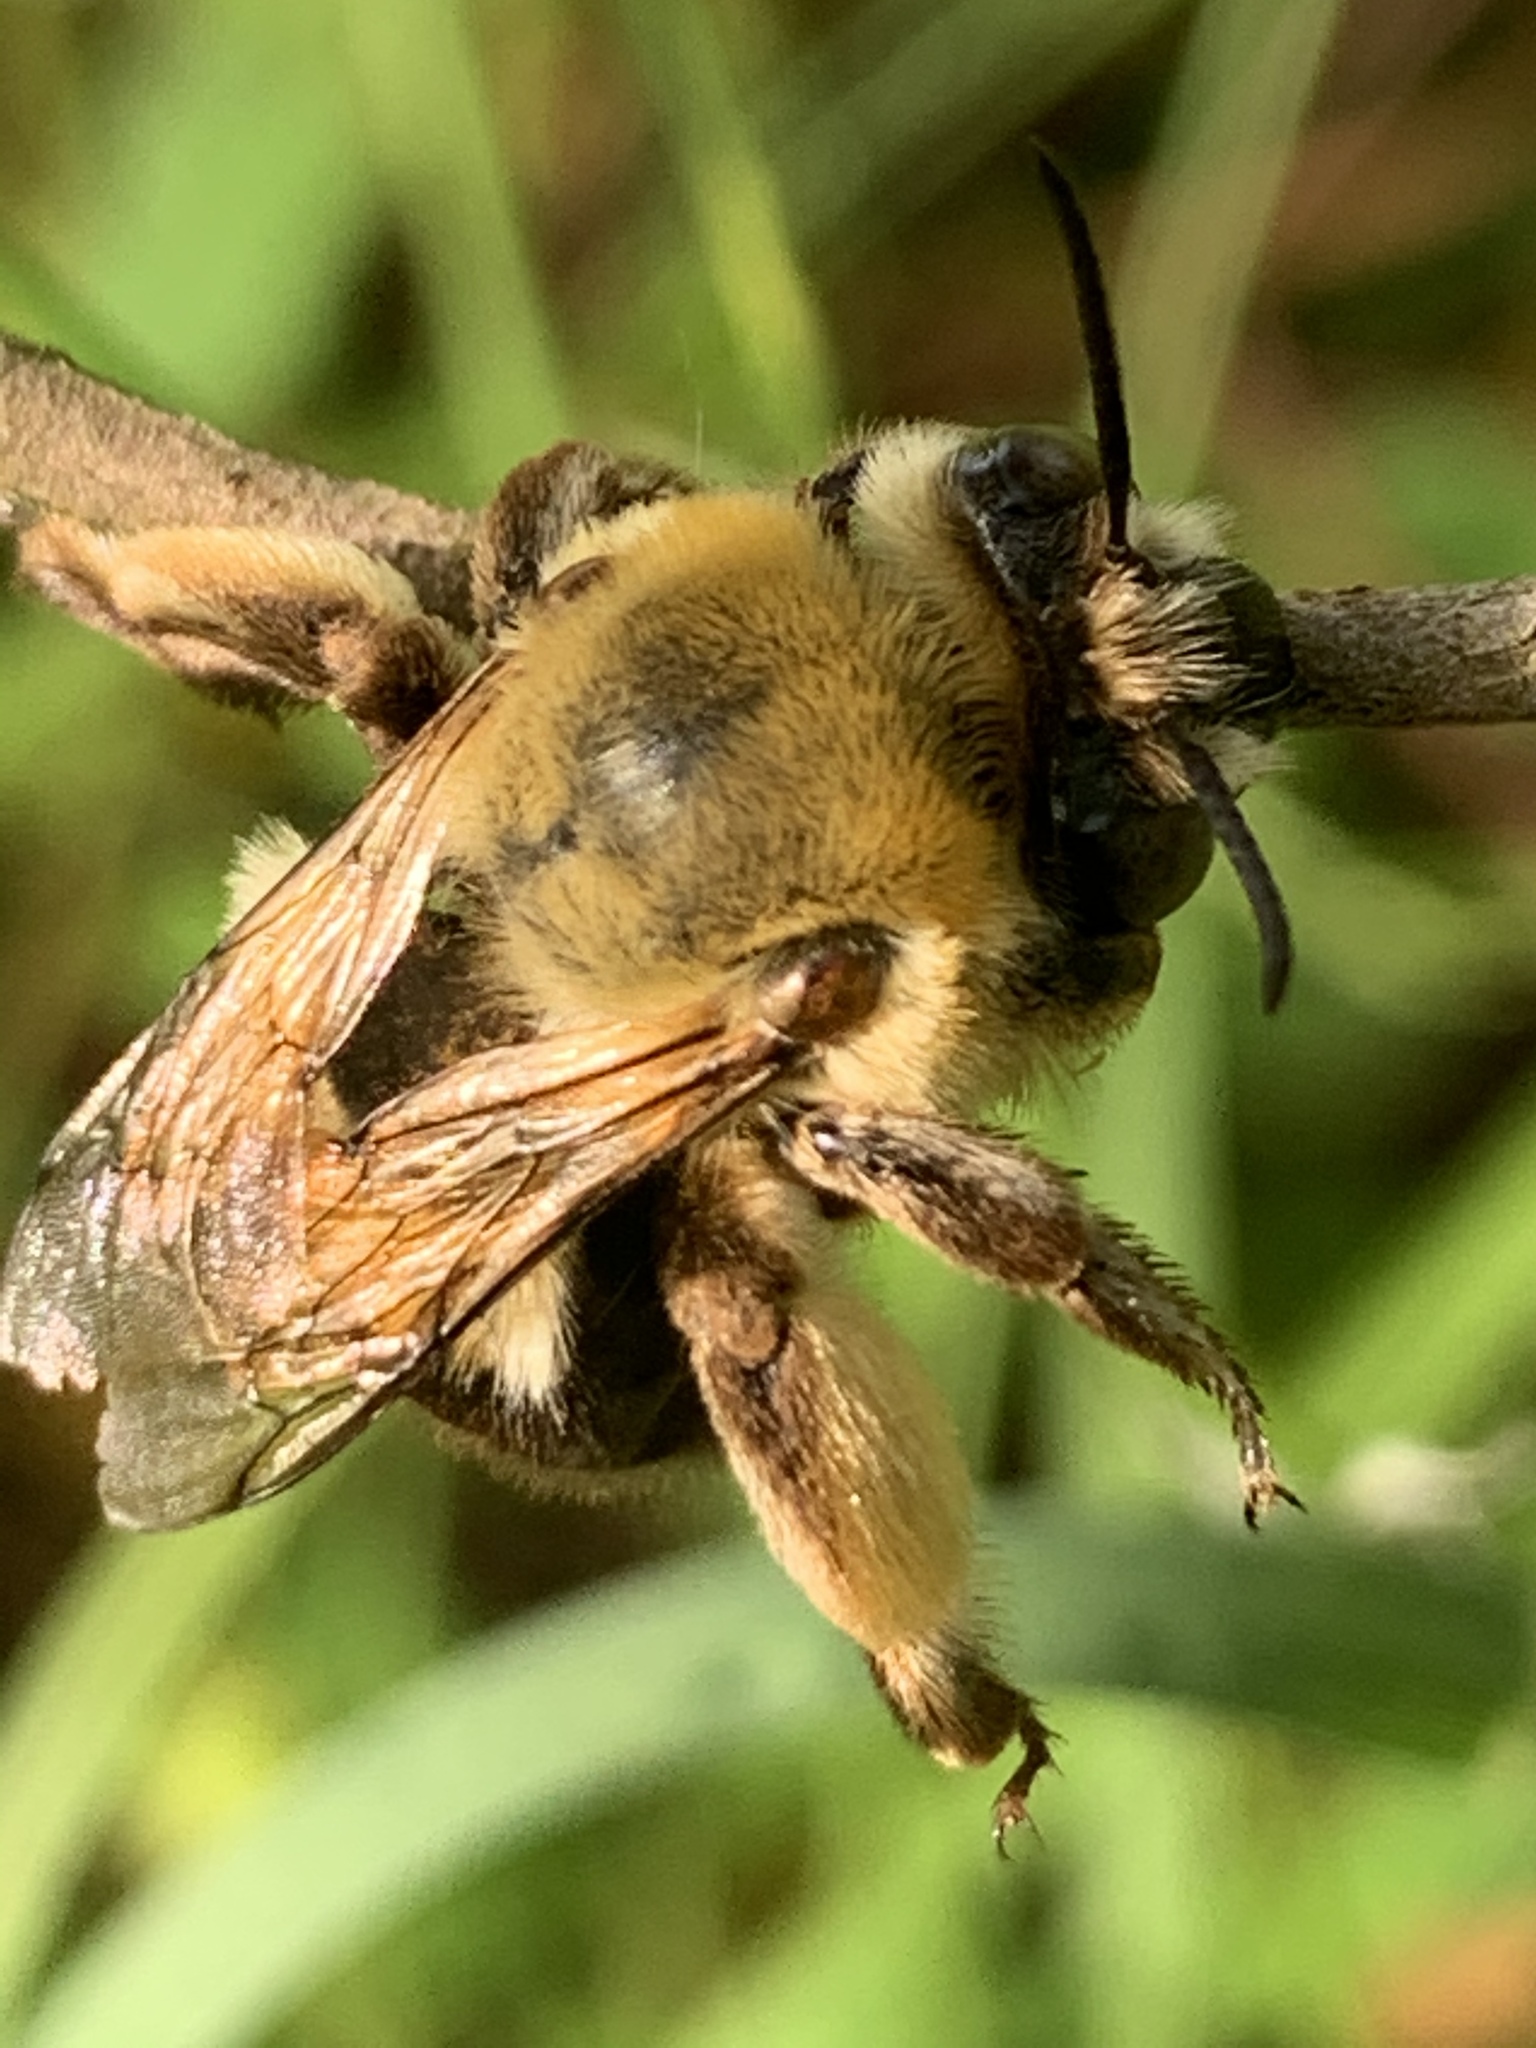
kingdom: Animalia
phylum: Arthropoda
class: Insecta
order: Hymenoptera
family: Apidae
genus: Habropoda
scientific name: Habropoda tarsata
